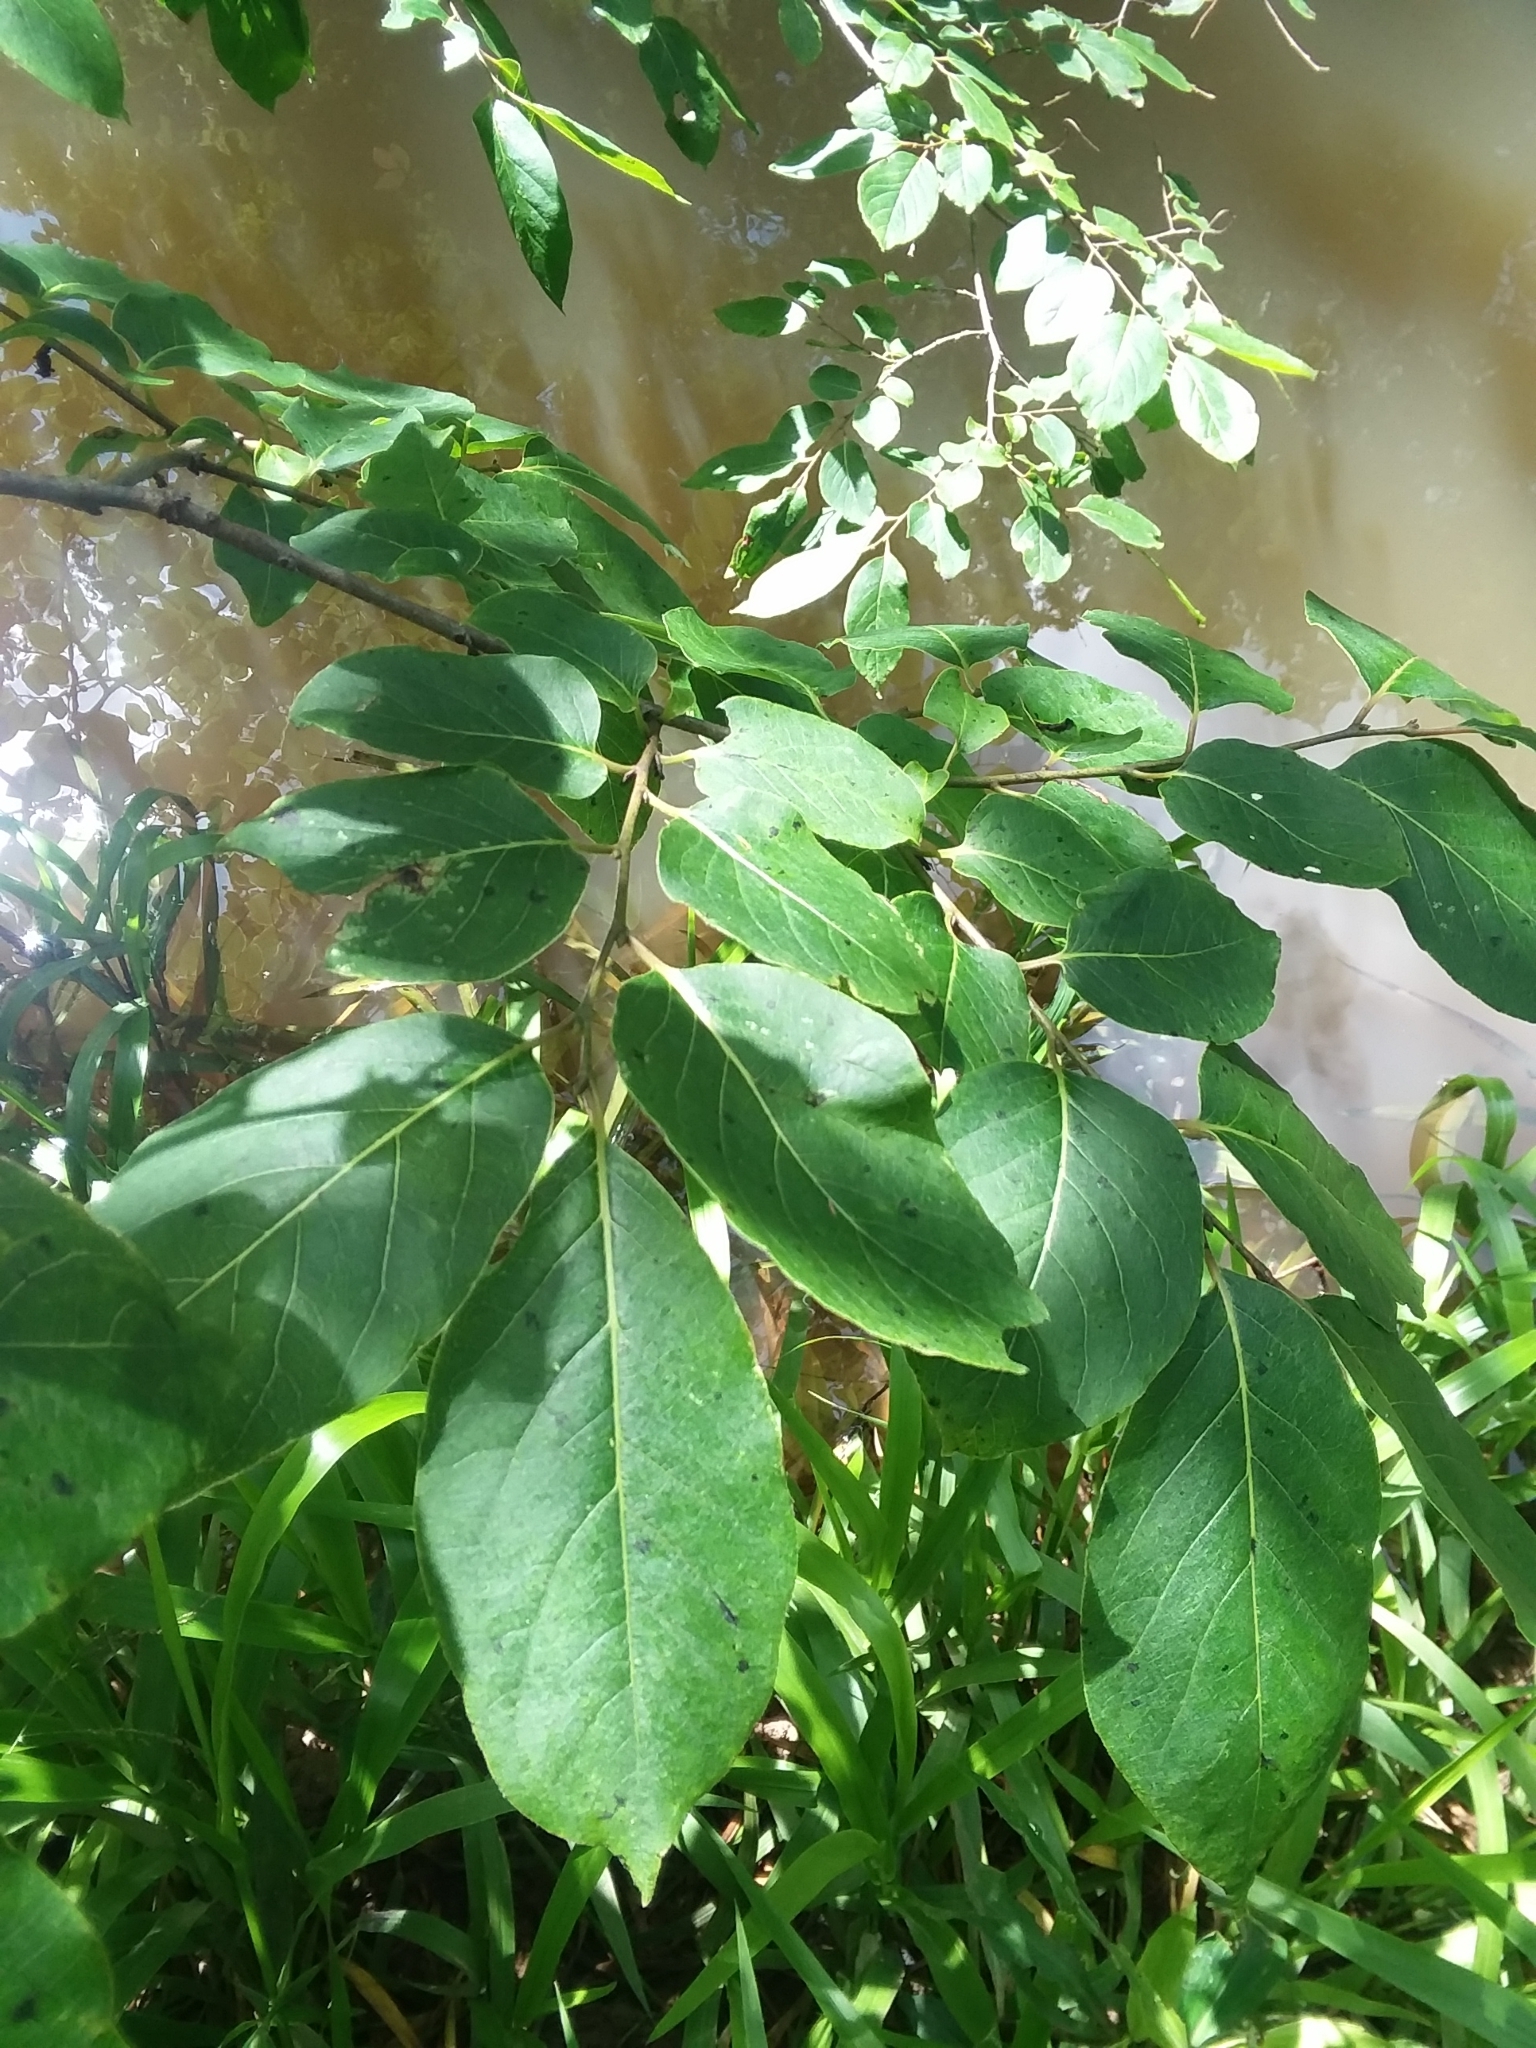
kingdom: Plantae
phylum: Tracheophyta
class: Magnoliopsida
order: Ericales
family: Ebenaceae
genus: Diospyros
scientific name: Diospyros virginiana
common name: Persimmon
